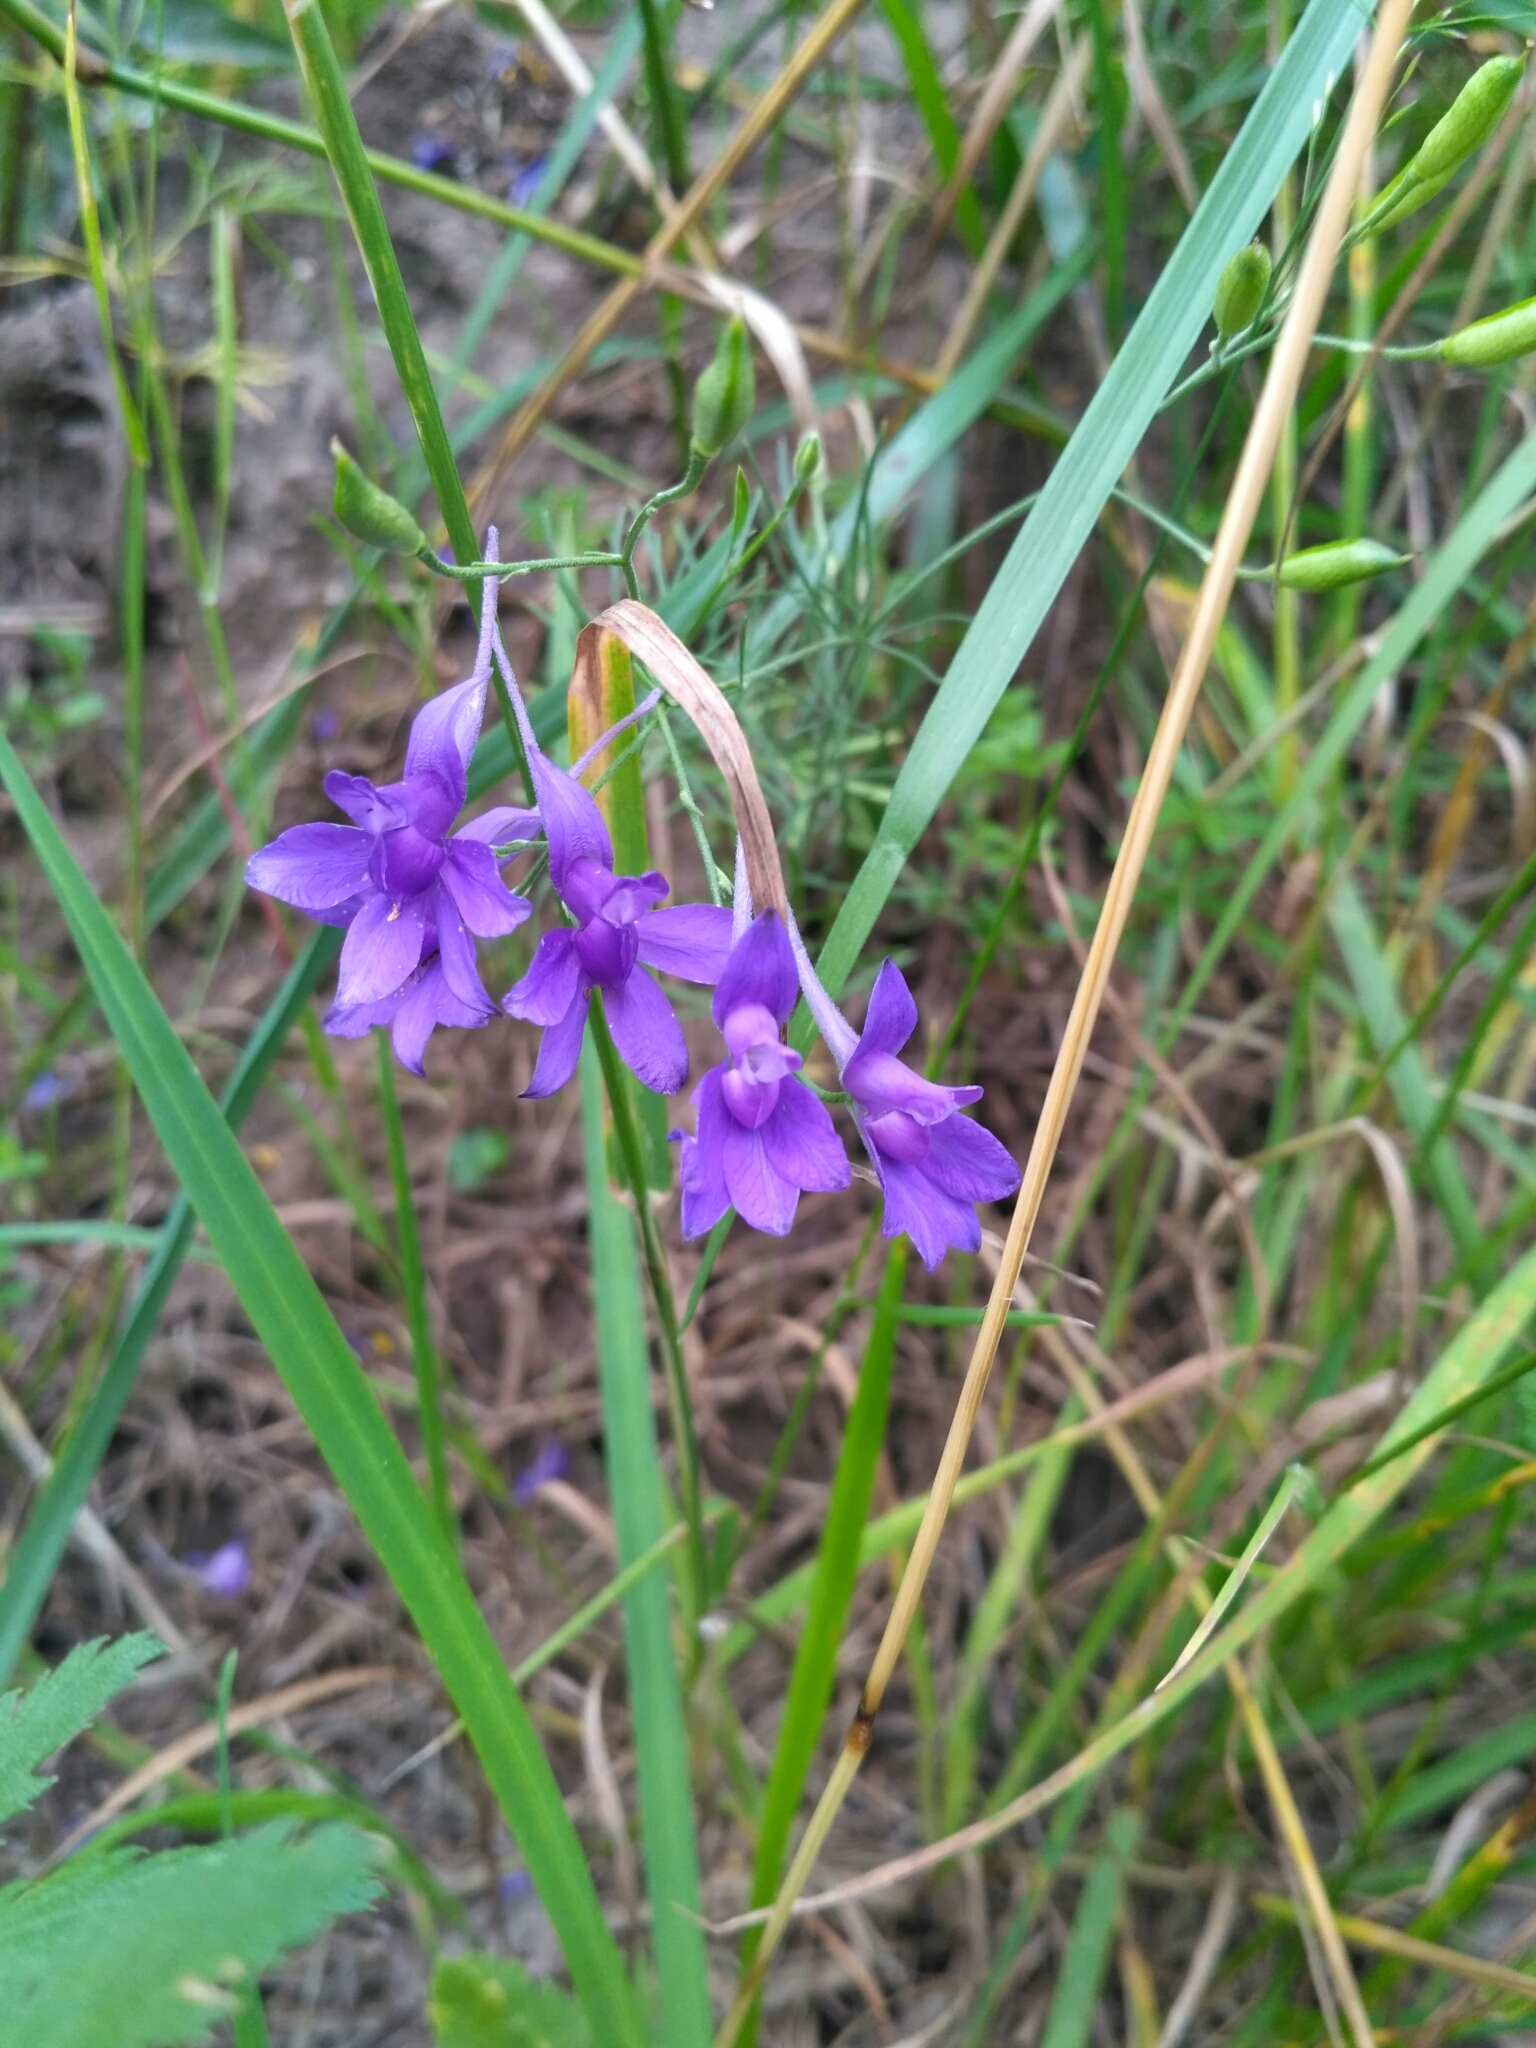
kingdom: Plantae
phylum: Tracheophyta
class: Magnoliopsida
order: Ranunculales
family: Ranunculaceae
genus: Delphinium
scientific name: Delphinium consolida
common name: Branching larkspur
